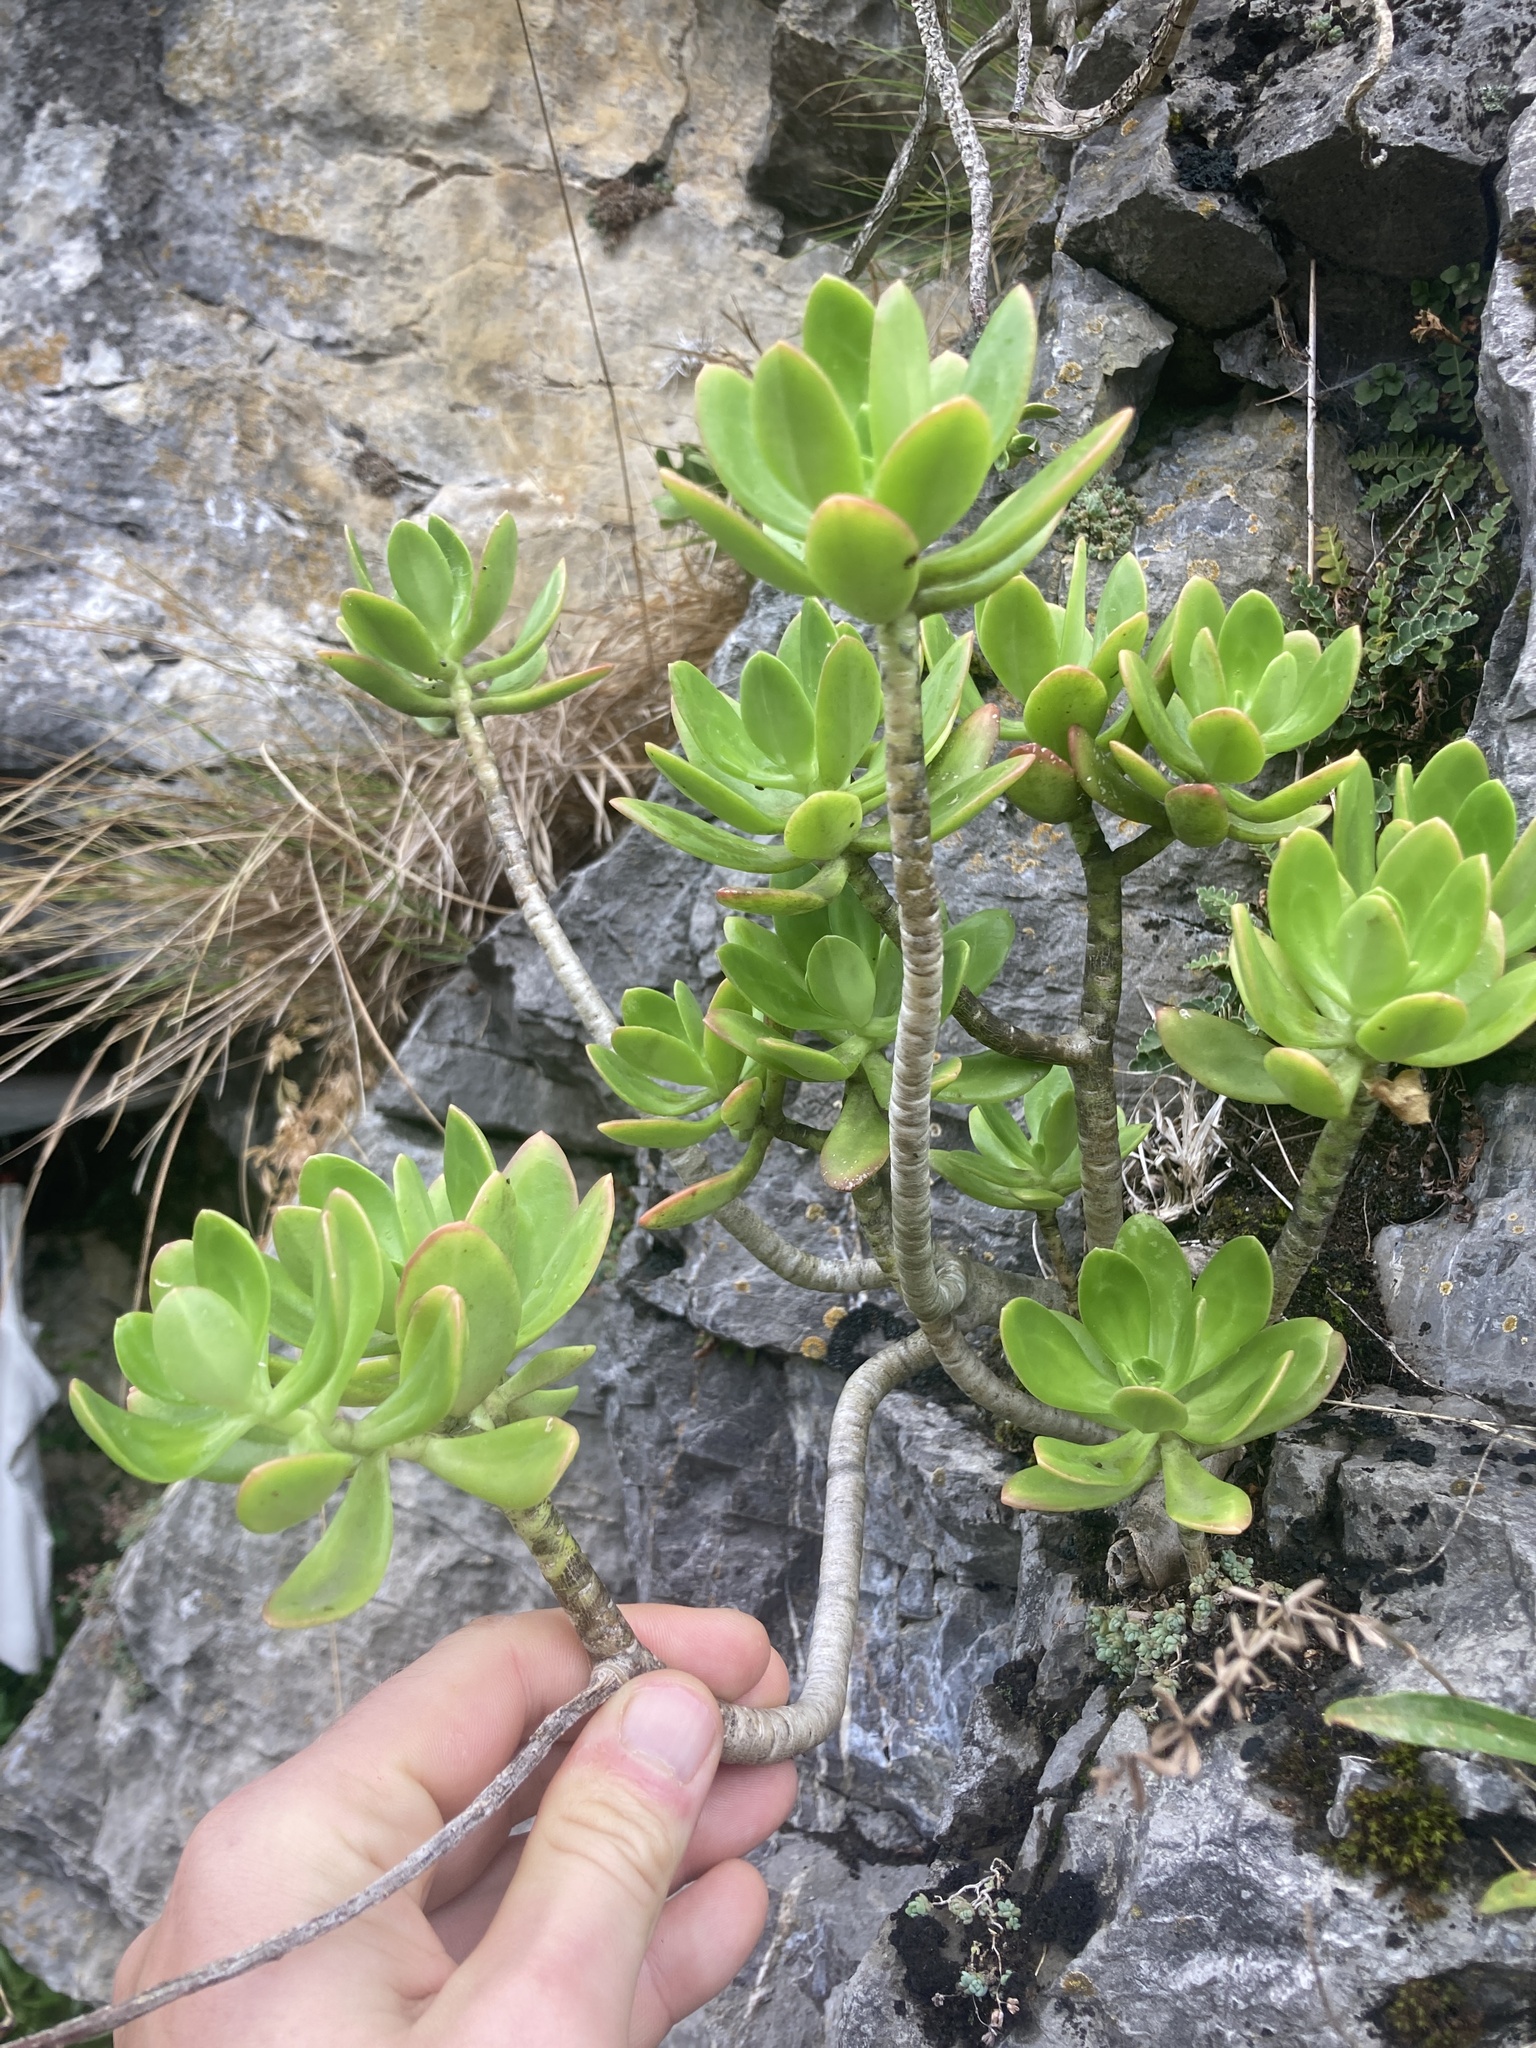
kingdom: Plantae
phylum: Tracheophyta
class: Magnoliopsida
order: Saxifragales
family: Crassulaceae
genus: Sedum
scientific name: Sedum praealtum
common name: Greater mexican-stonecrop
